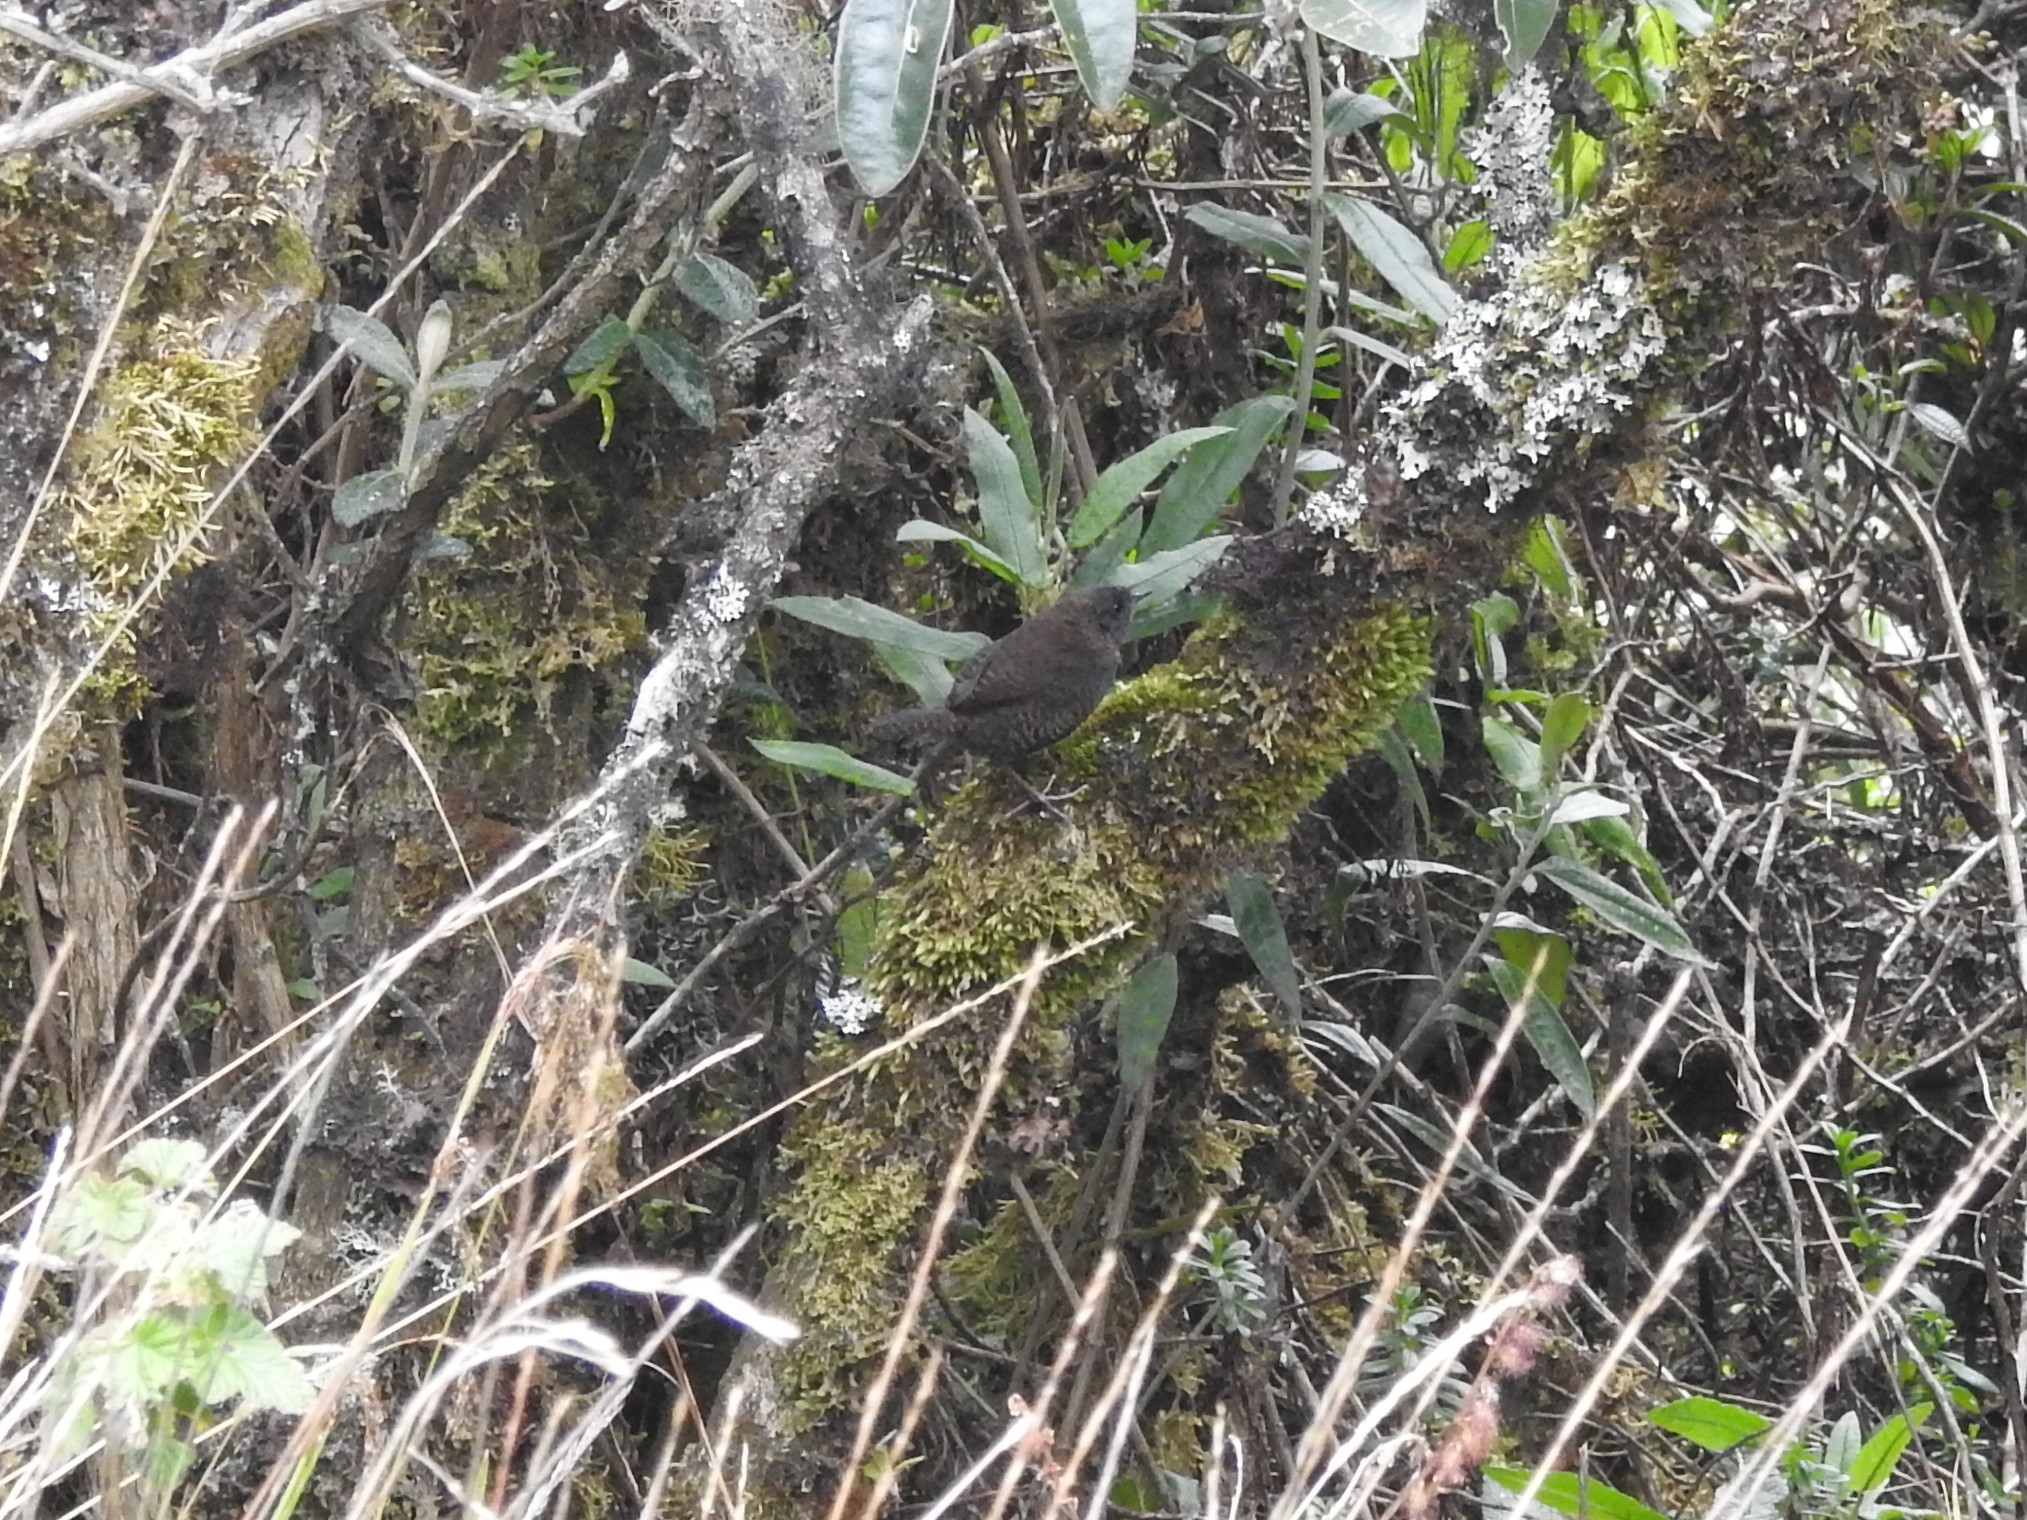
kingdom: Animalia
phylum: Chordata
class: Aves
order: Passeriformes
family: Rhinocryptidae
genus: Scytalopus
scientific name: Scytalopus opacus
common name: Paramo tapaculo
